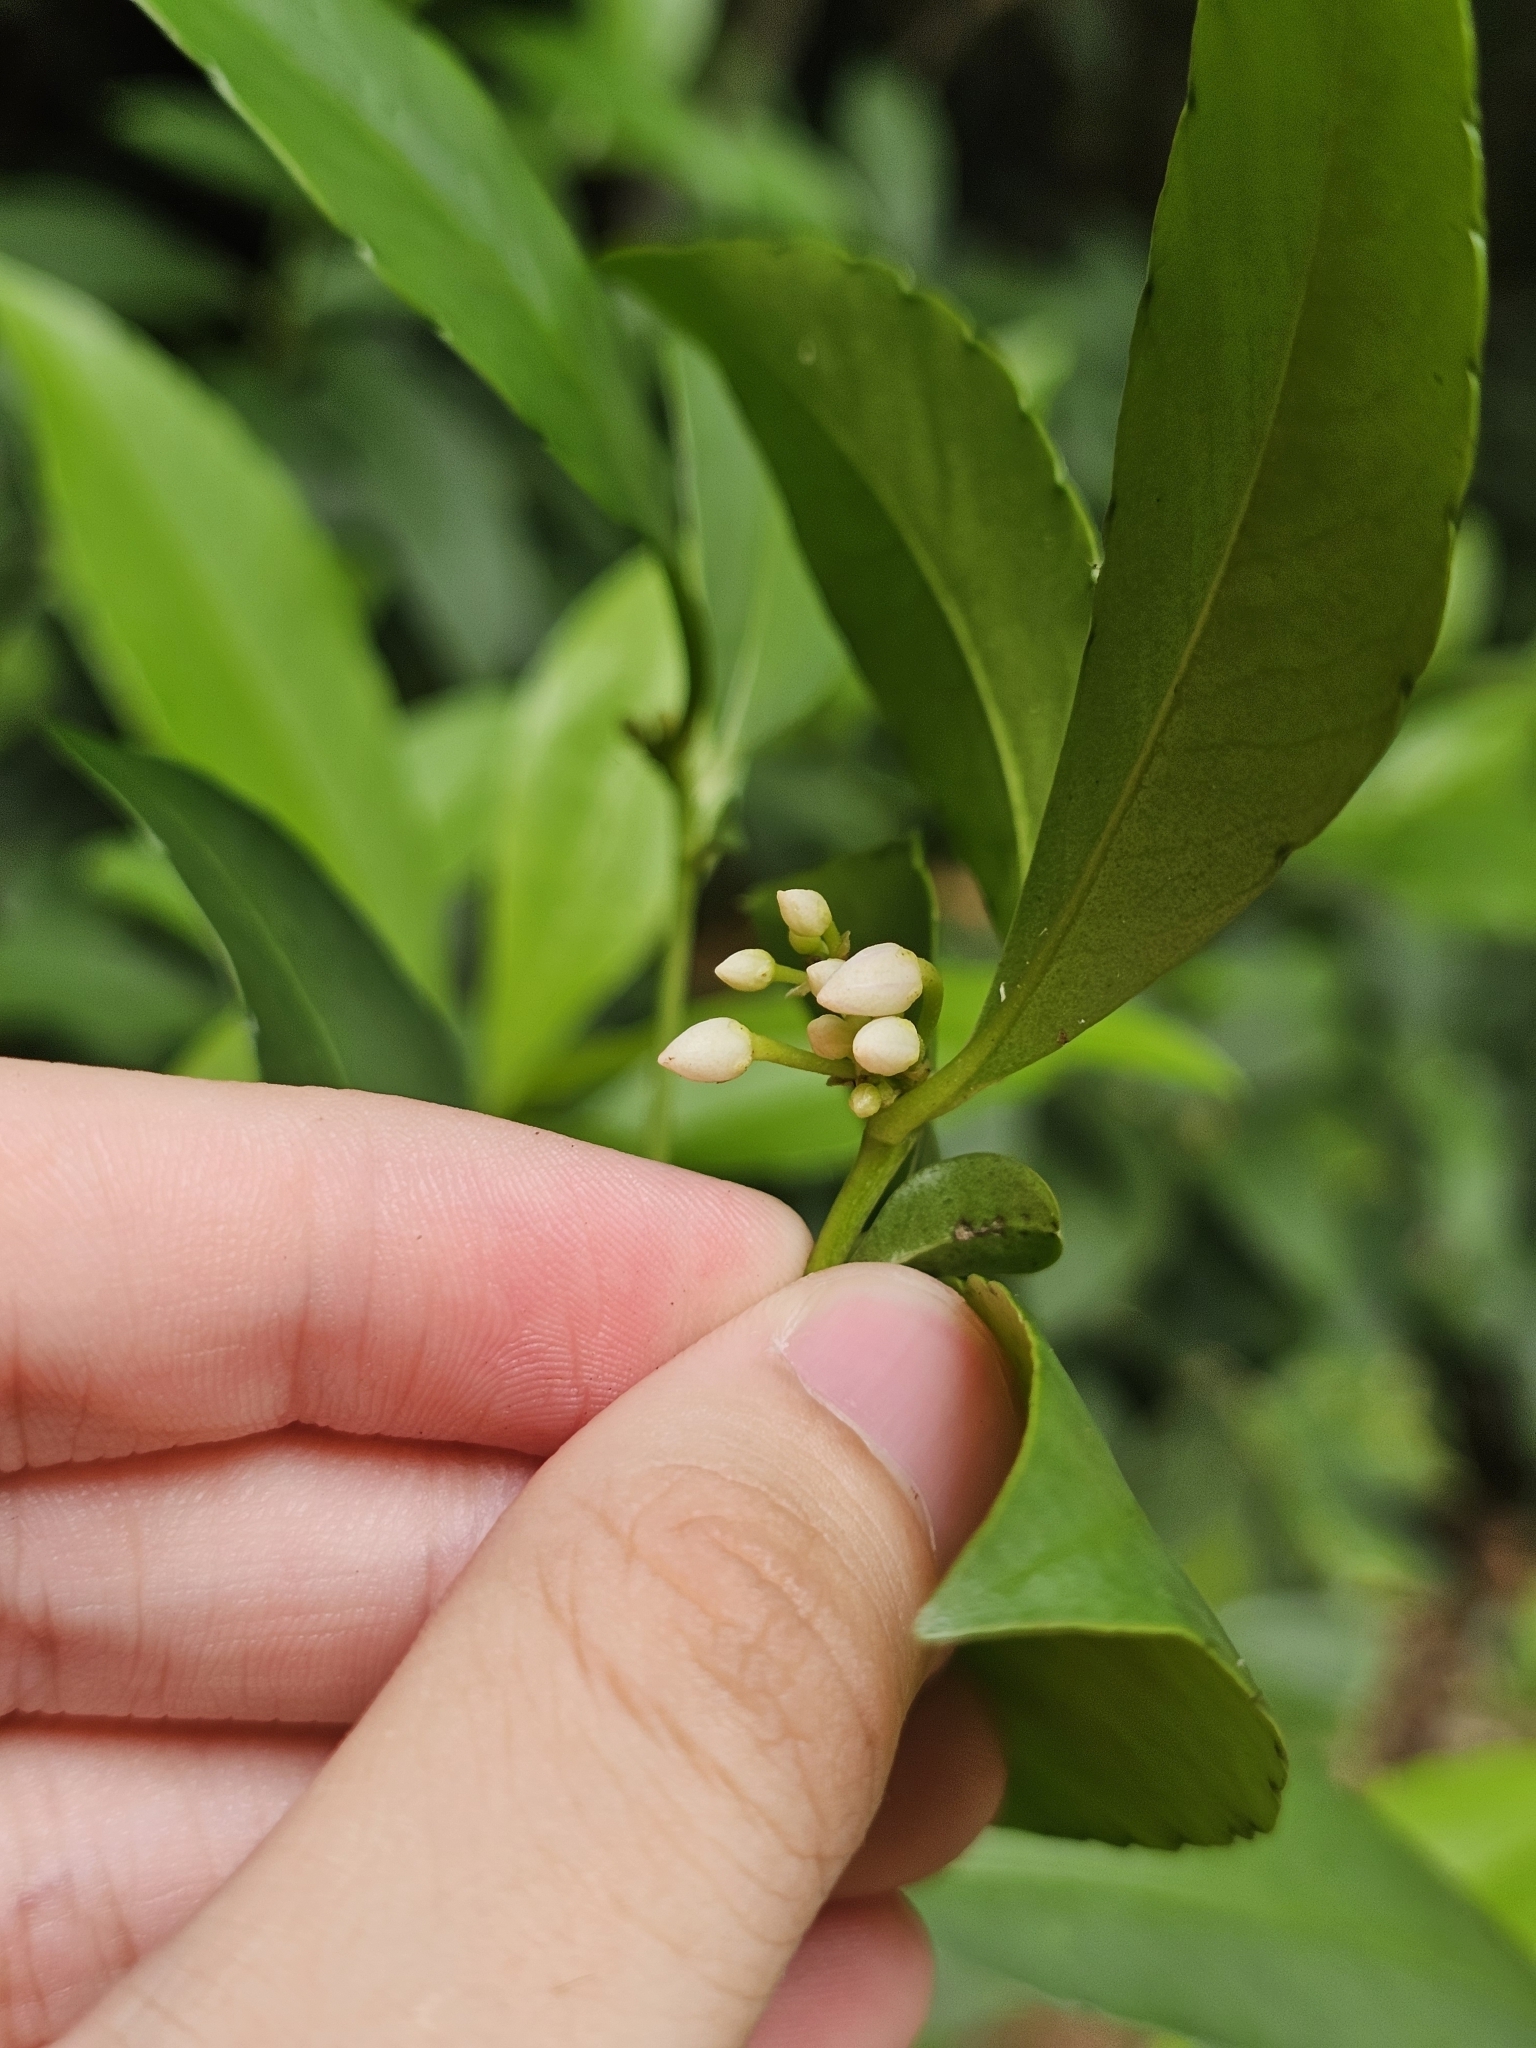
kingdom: Plantae
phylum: Tracheophyta
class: Magnoliopsida
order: Ericales
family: Primulaceae
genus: Ardisia
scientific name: Ardisia crenata
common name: Hen's eyes
